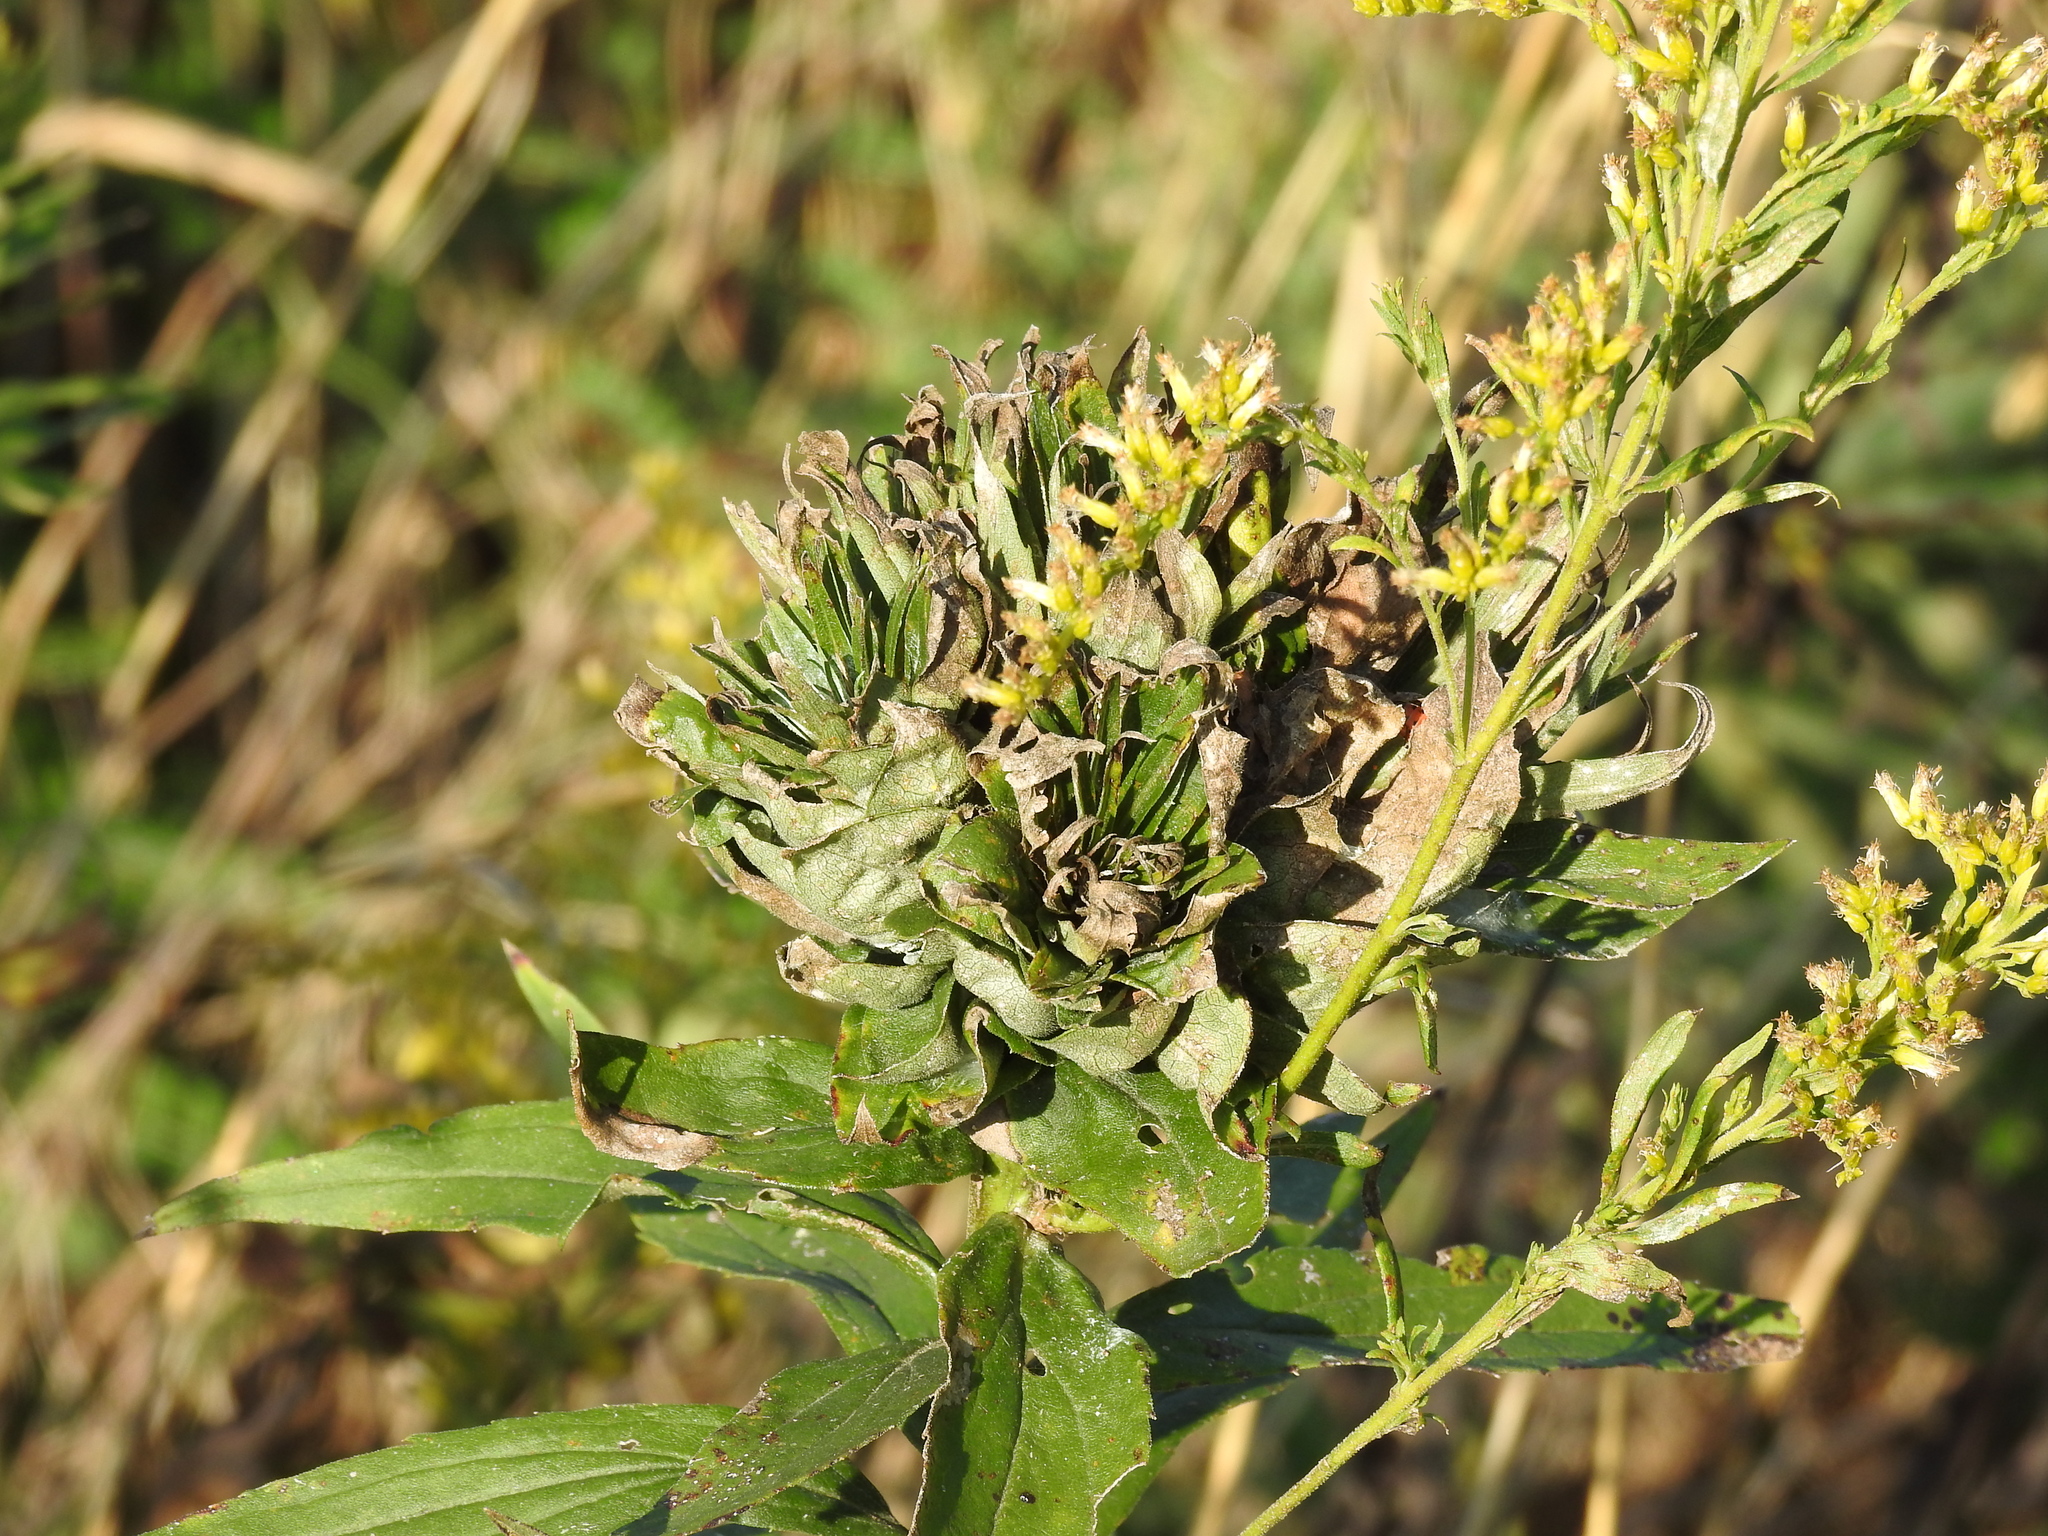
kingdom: Animalia
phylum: Arthropoda
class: Insecta
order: Diptera
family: Cecidomyiidae
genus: Rhopalomyia
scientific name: Rhopalomyia solidaginis
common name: Goldenrod bunch gall midge
